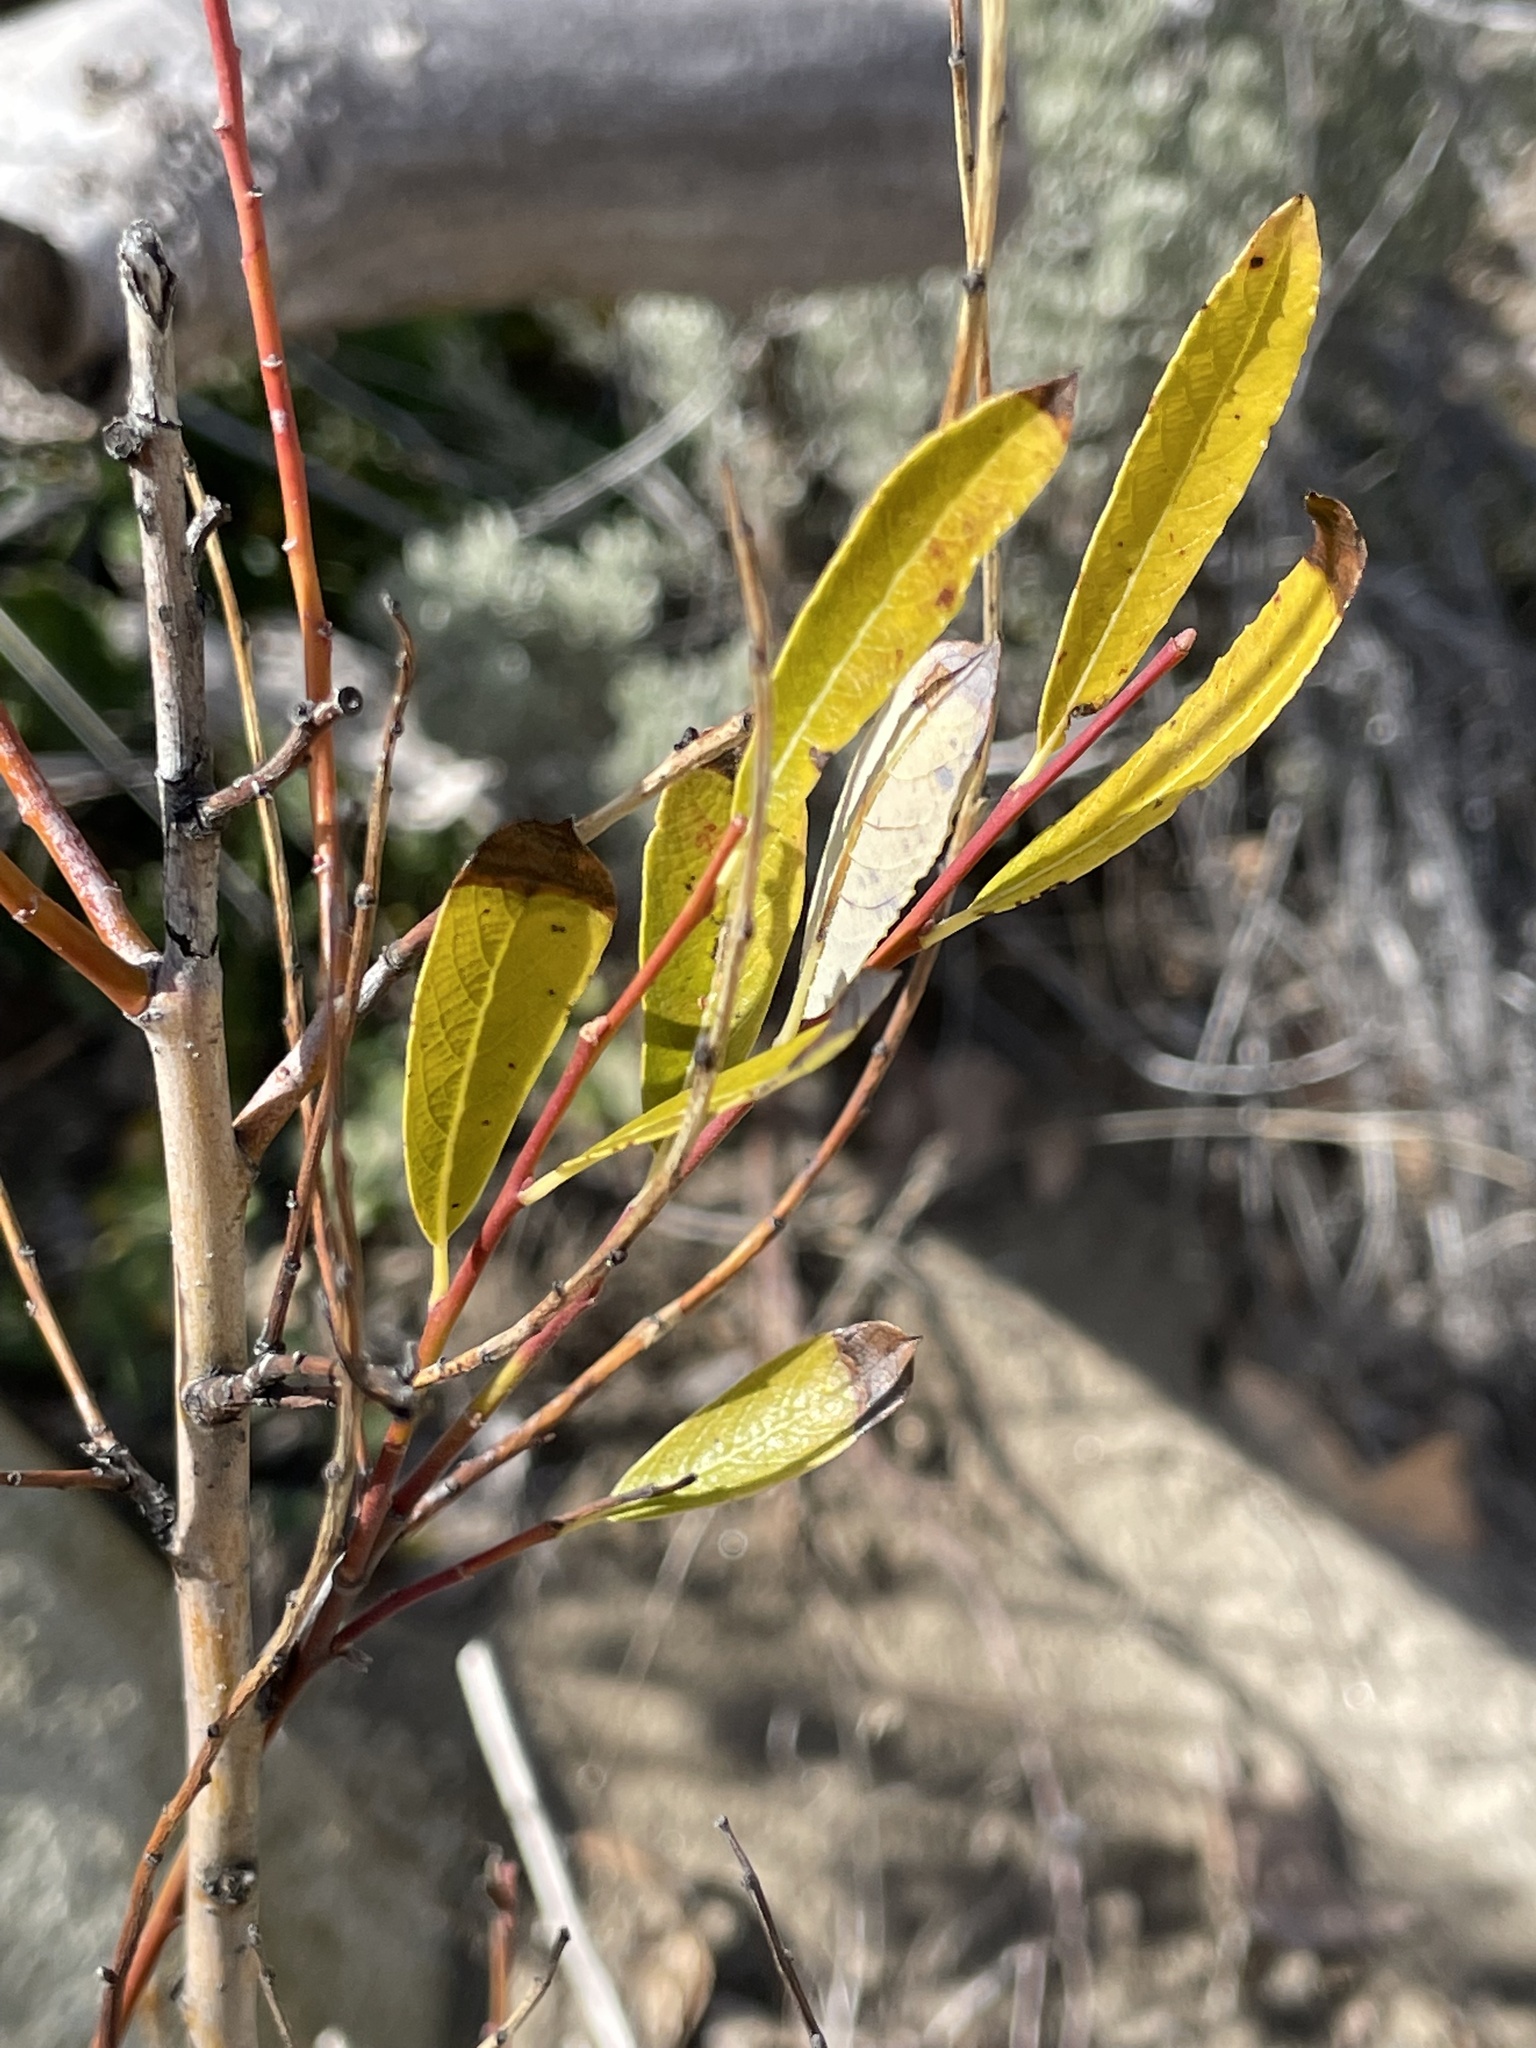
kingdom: Plantae
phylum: Tracheophyta
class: Magnoliopsida
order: Malpighiales
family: Salicaceae
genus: Salix
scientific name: Salix lasiolepis
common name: Arroyo willow
